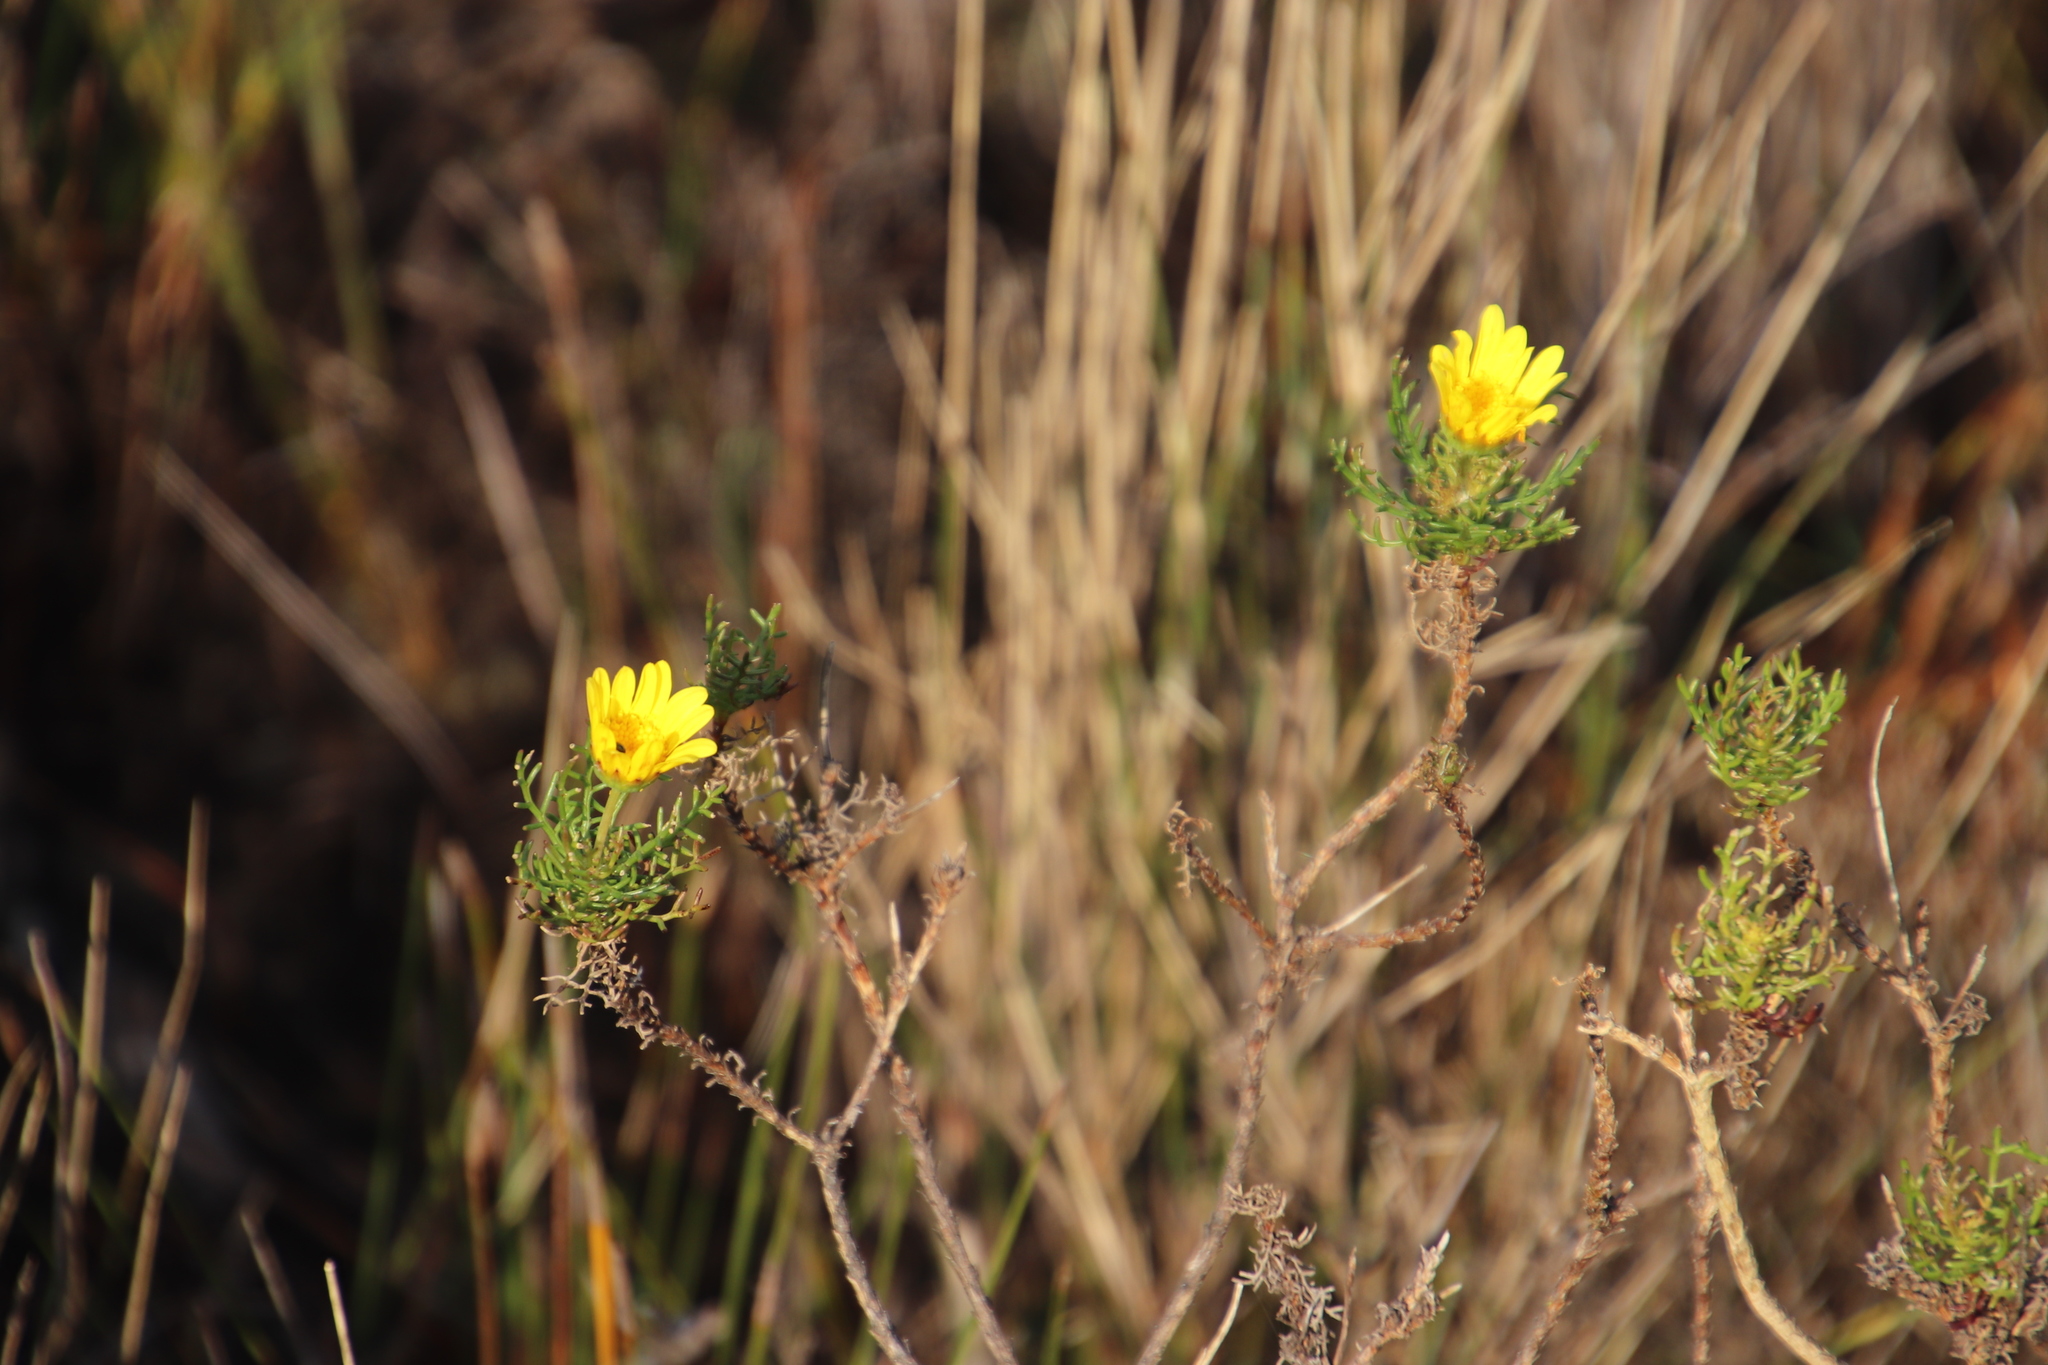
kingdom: Plantae
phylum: Tracheophyta
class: Magnoliopsida
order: Asterales
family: Asteraceae
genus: Euryops
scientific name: Euryops abrotanifolius
